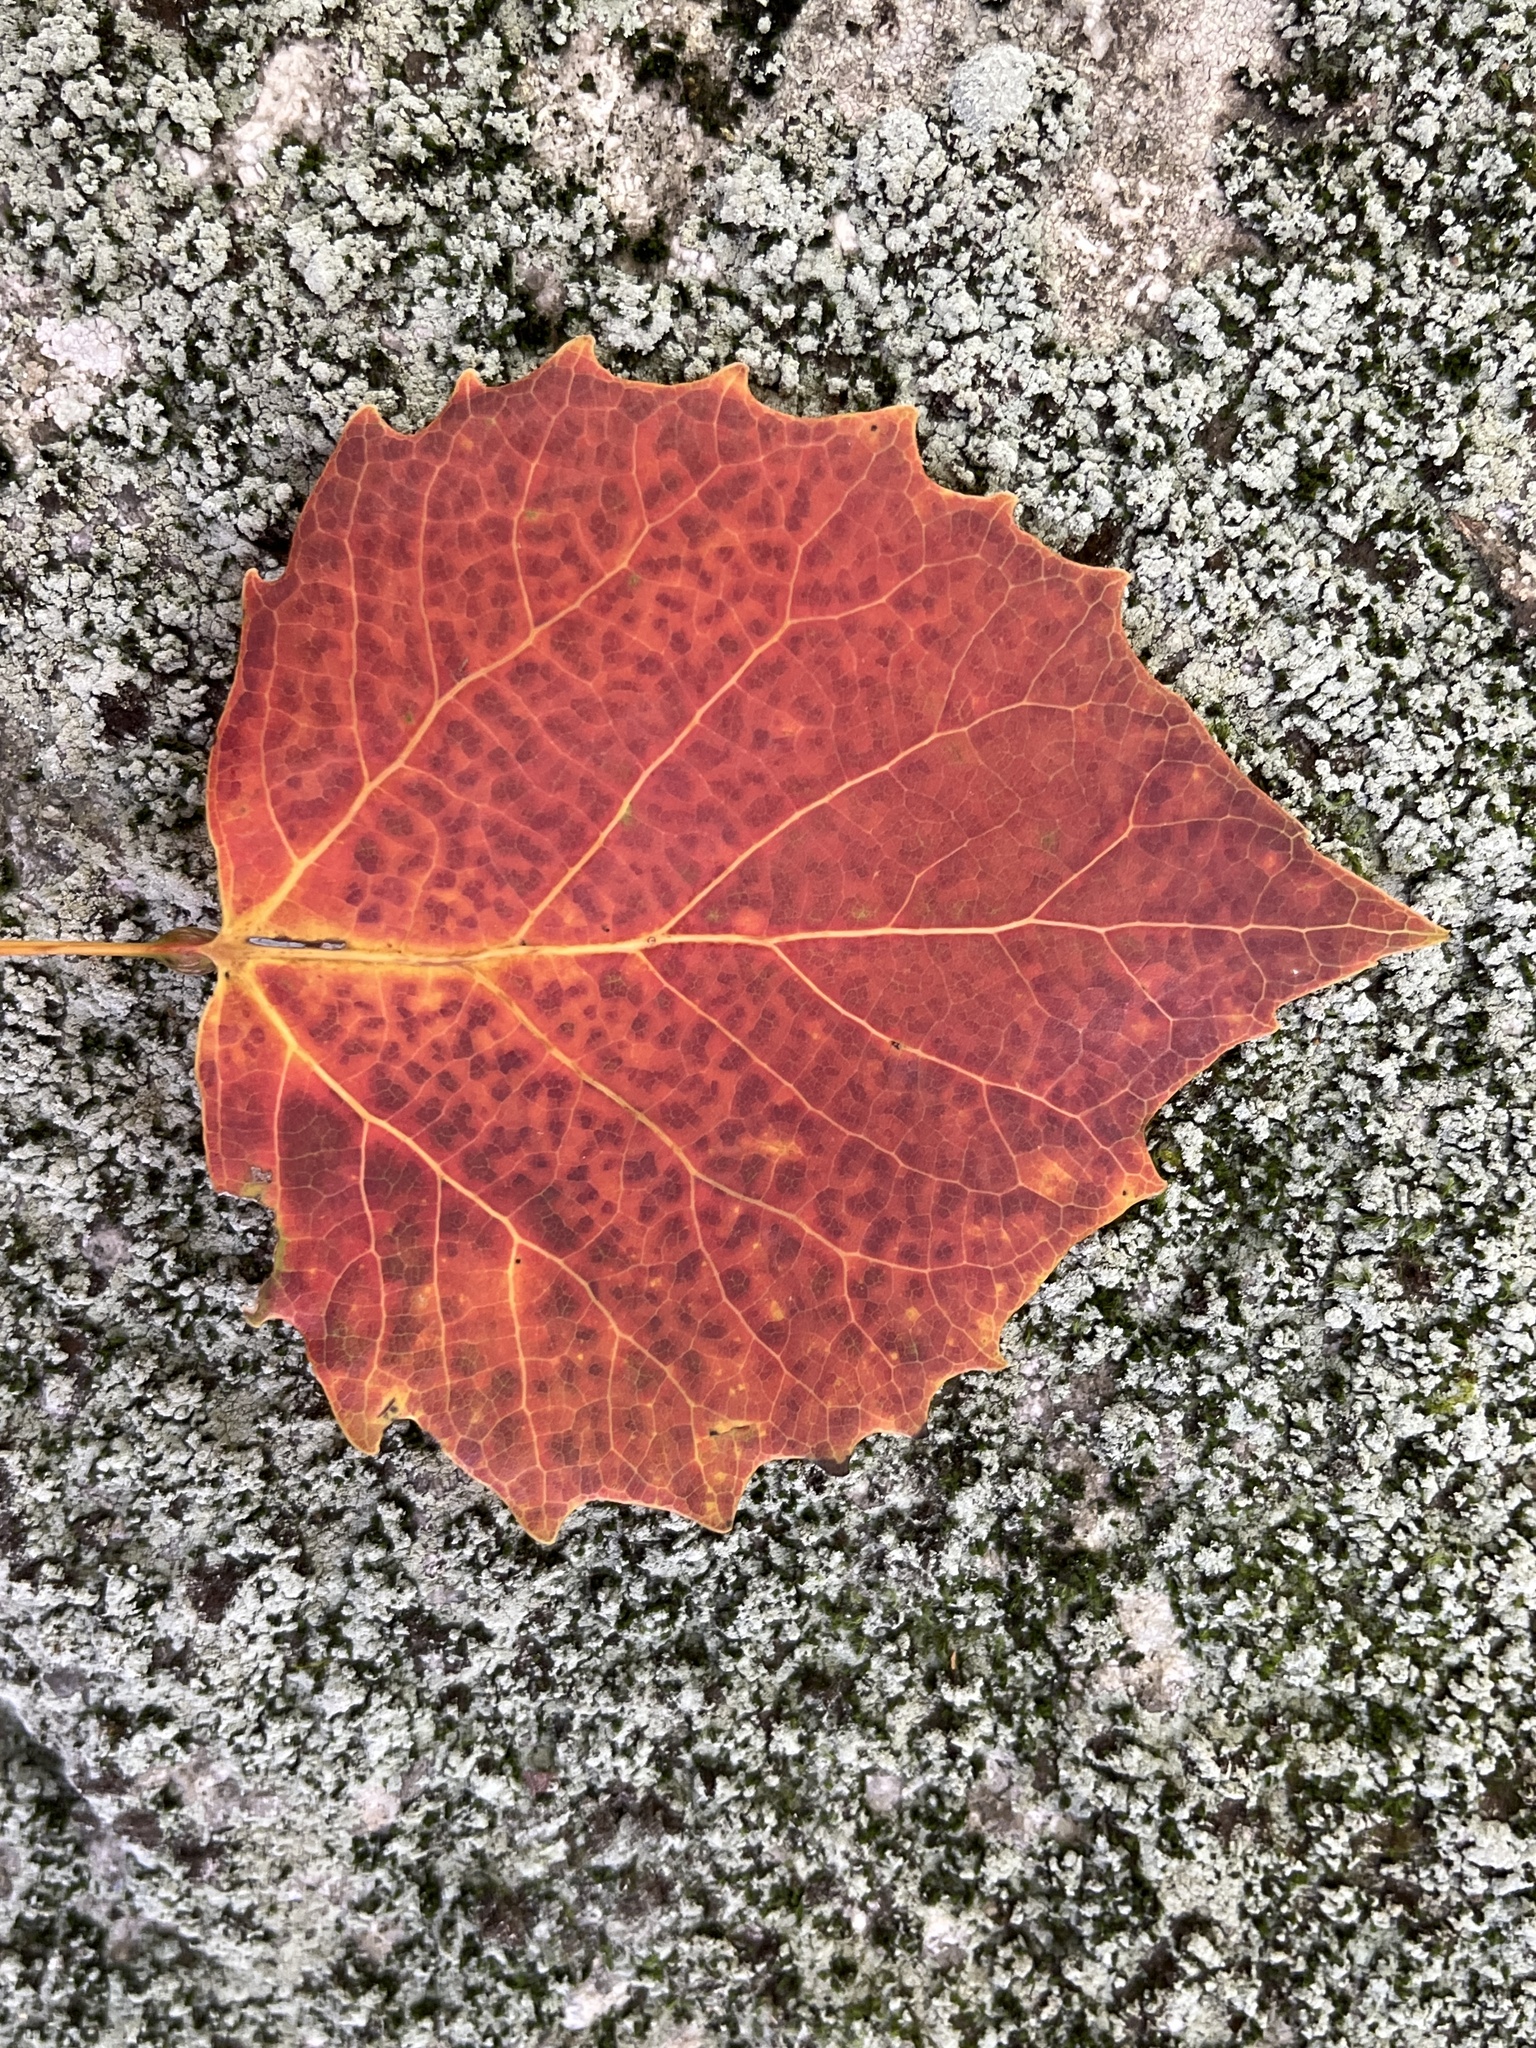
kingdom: Plantae
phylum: Tracheophyta
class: Magnoliopsida
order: Malpighiales
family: Salicaceae
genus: Populus
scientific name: Populus grandidentata
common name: Bigtooth aspen
